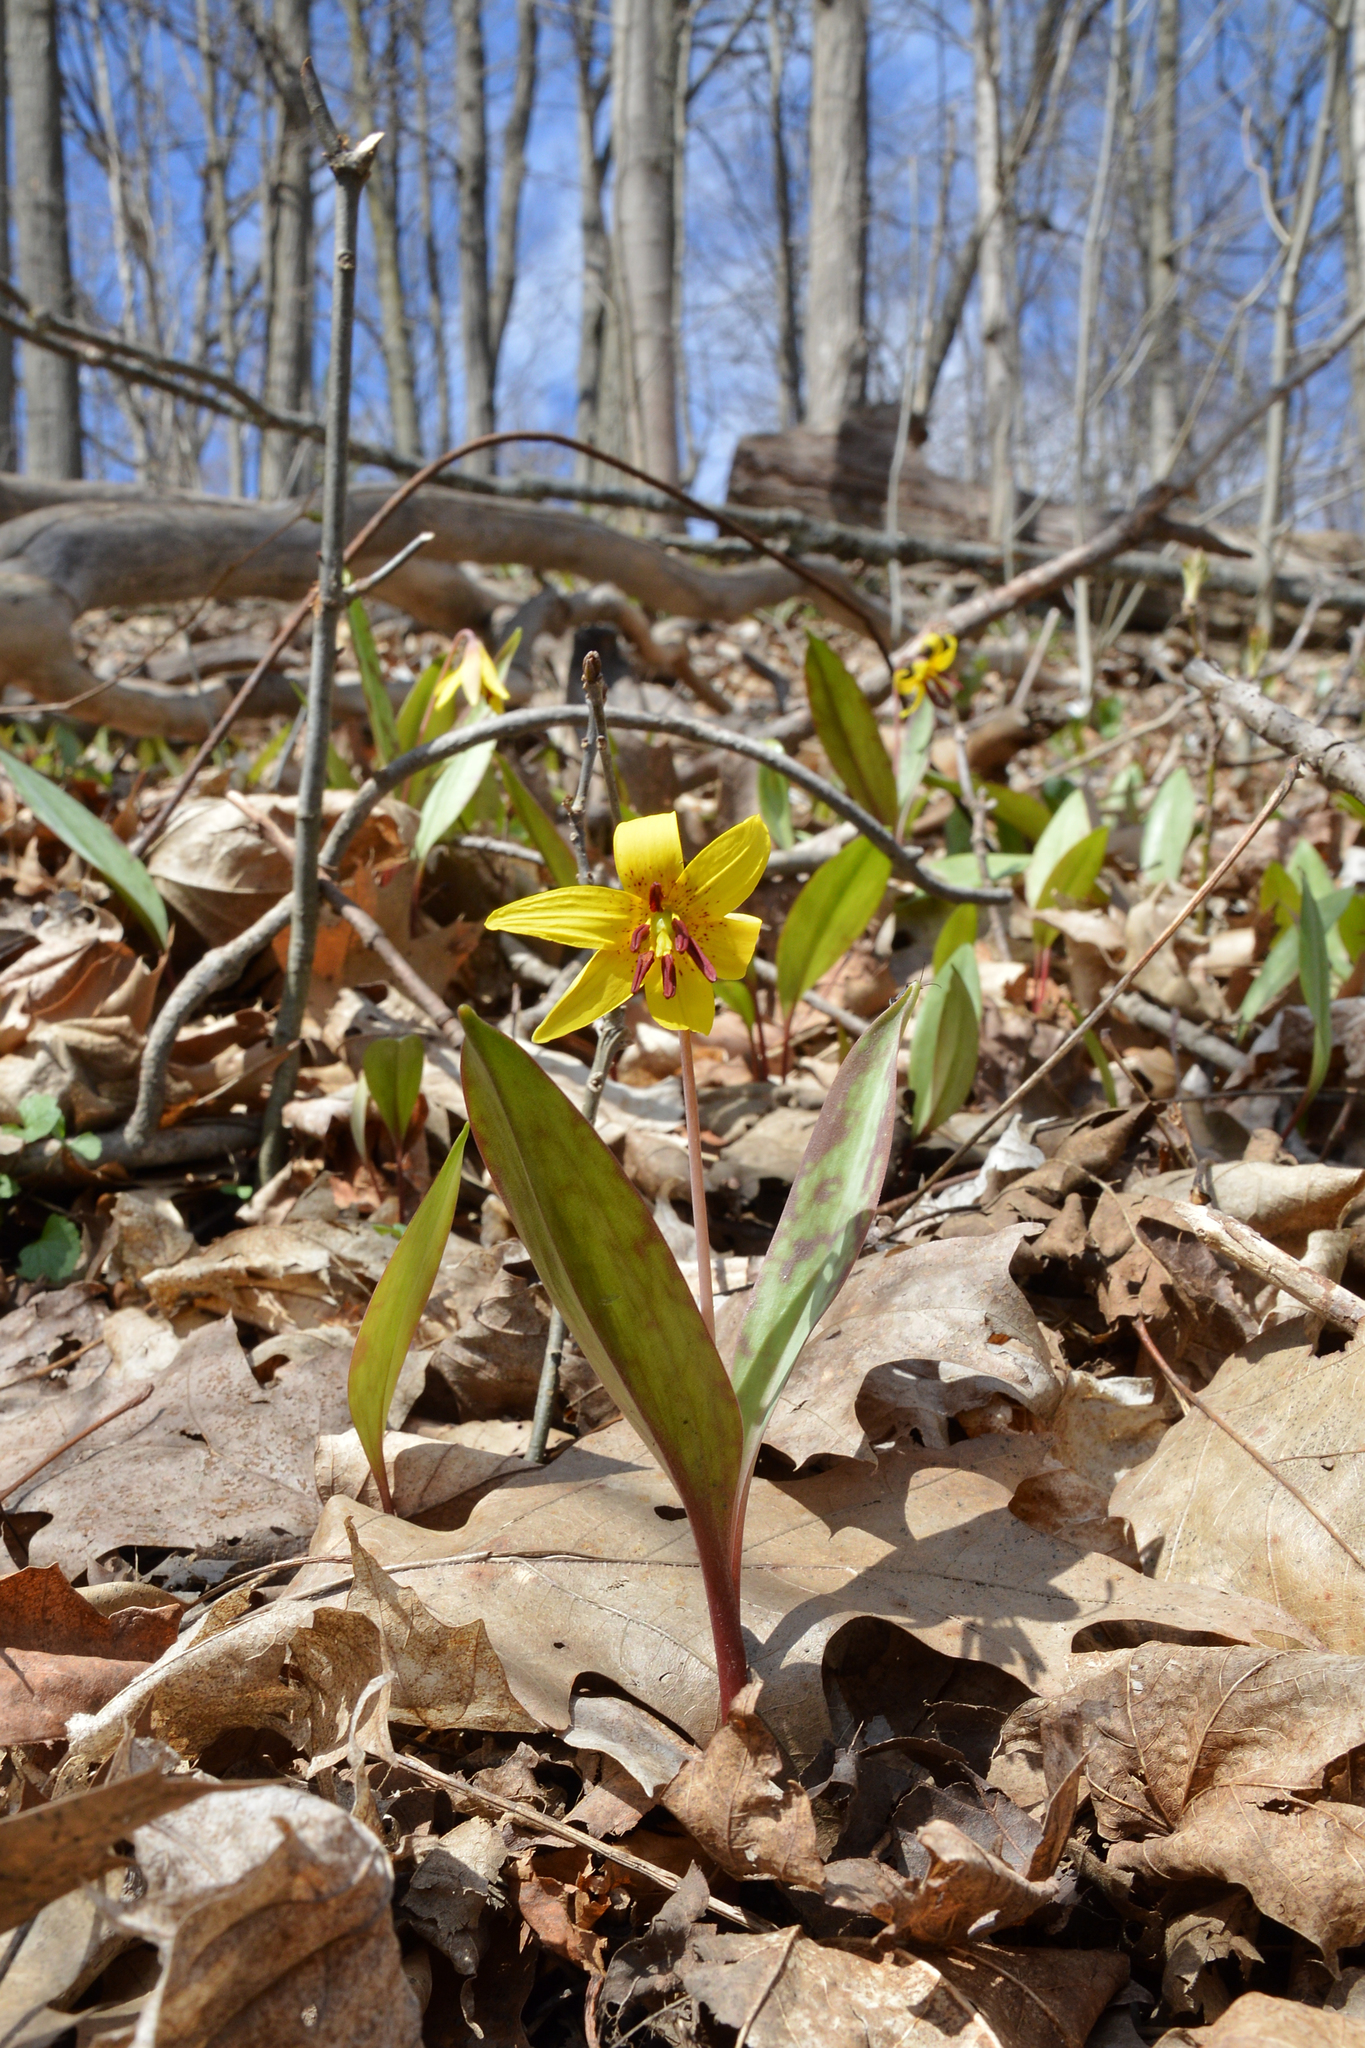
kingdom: Plantae
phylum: Tracheophyta
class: Liliopsida
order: Liliales
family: Liliaceae
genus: Erythronium
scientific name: Erythronium americanum
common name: Yellow adder's-tongue
